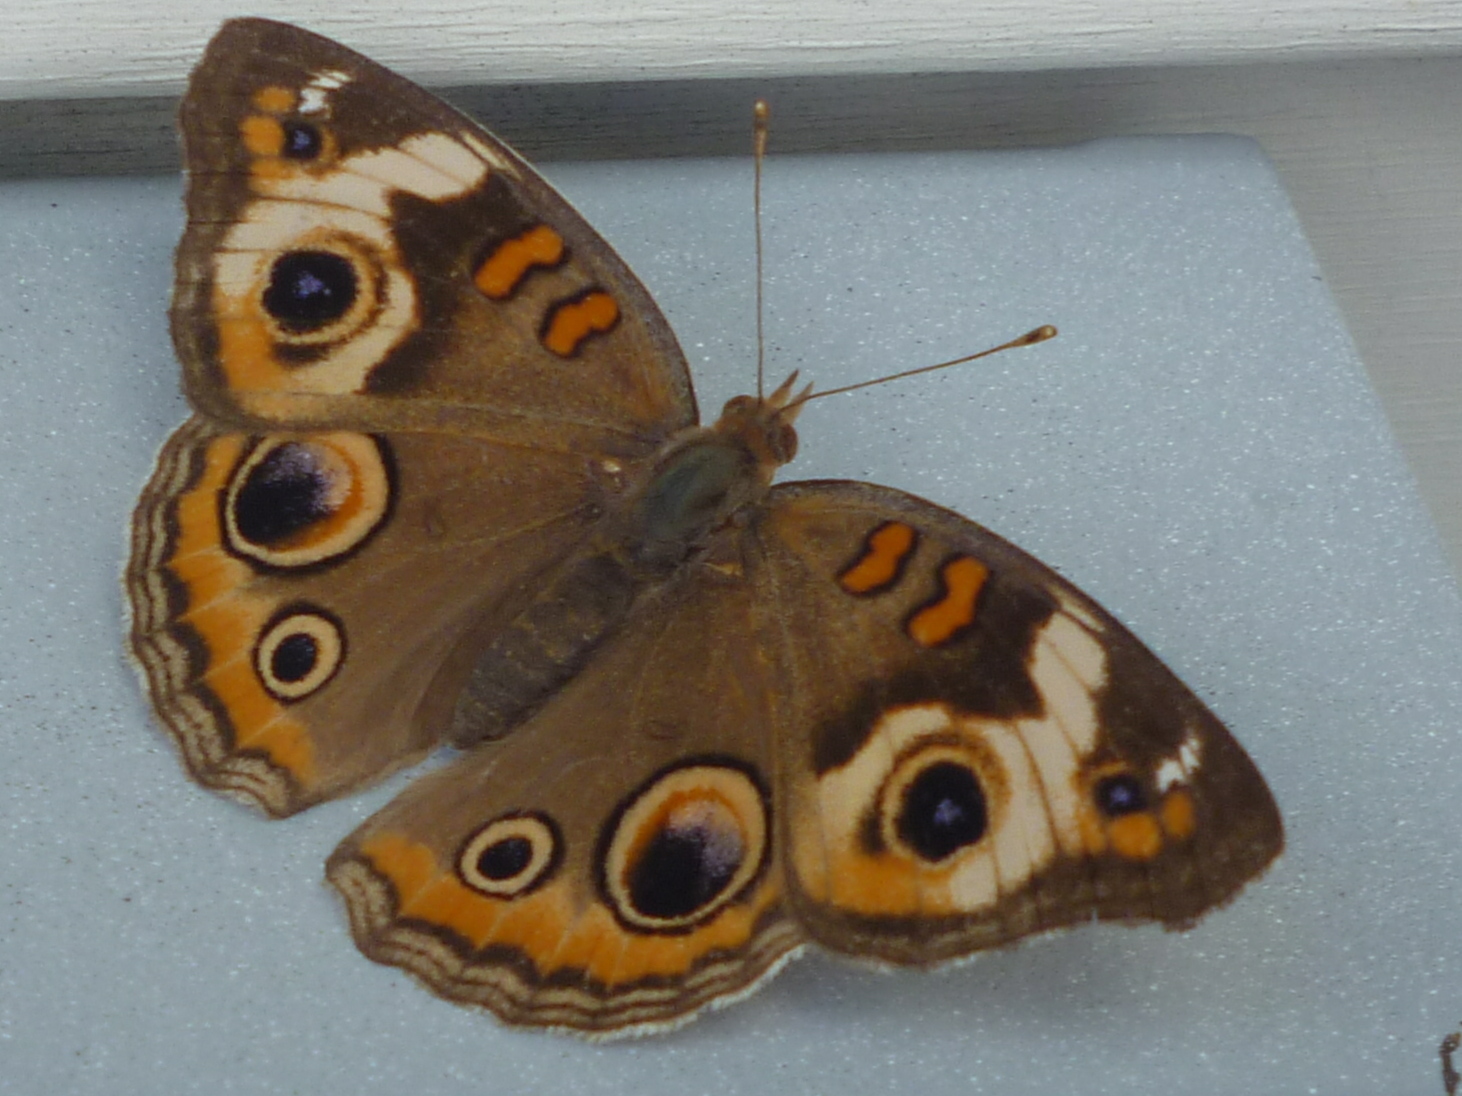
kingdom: Animalia
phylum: Arthropoda
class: Insecta
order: Lepidoptera
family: Nymphalidae
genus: Junonia
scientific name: Junonia coenia
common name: Common buckeye
